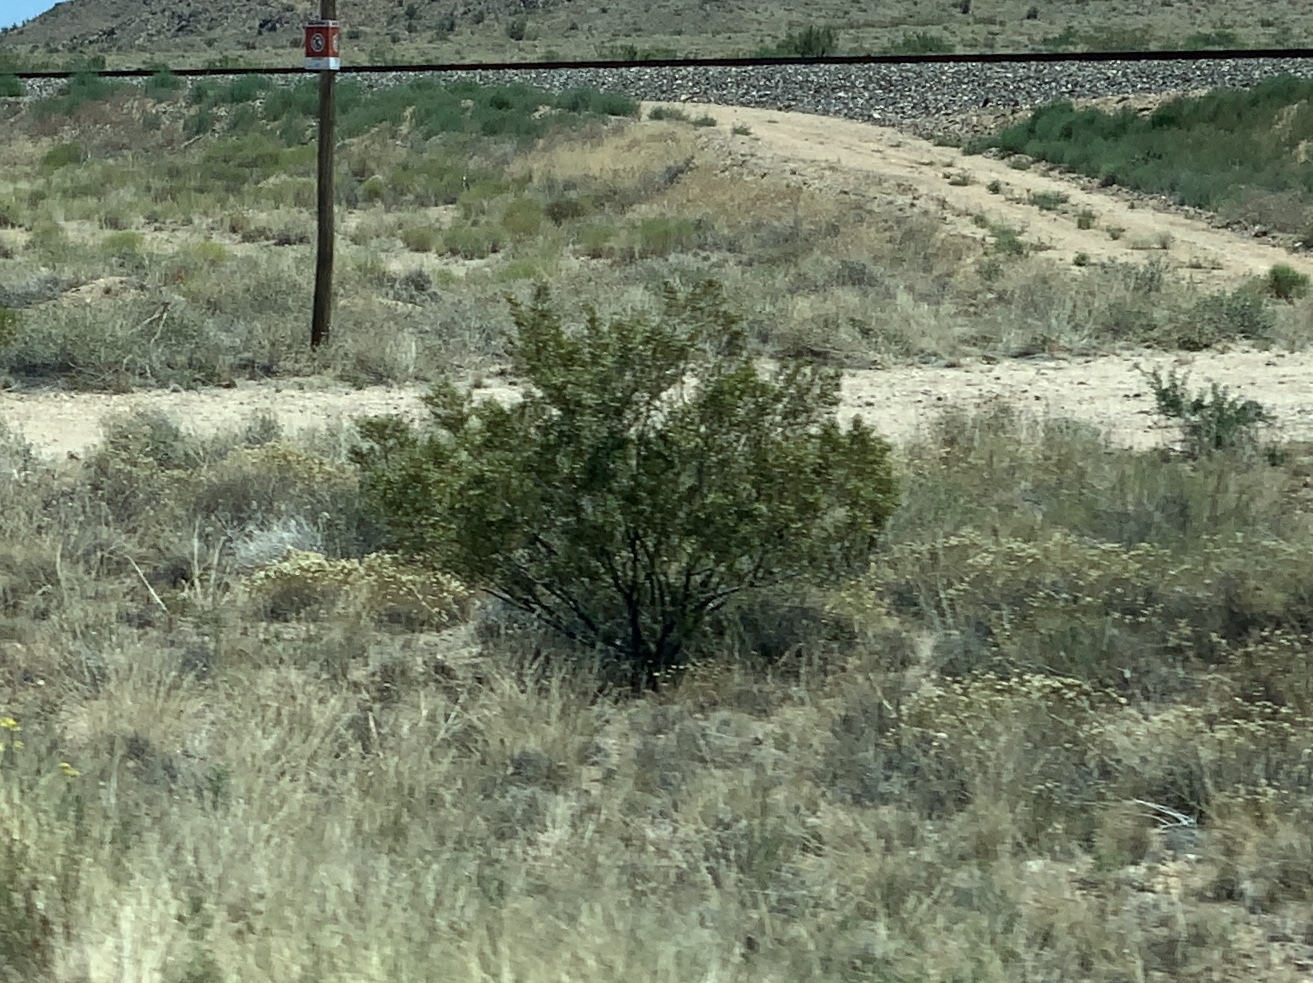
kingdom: Plantae
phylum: Tracheophyta
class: Magnoliopsida
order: Zygophyllales
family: Zygophyllaceae
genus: Larrea
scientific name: Larrea tridentata
